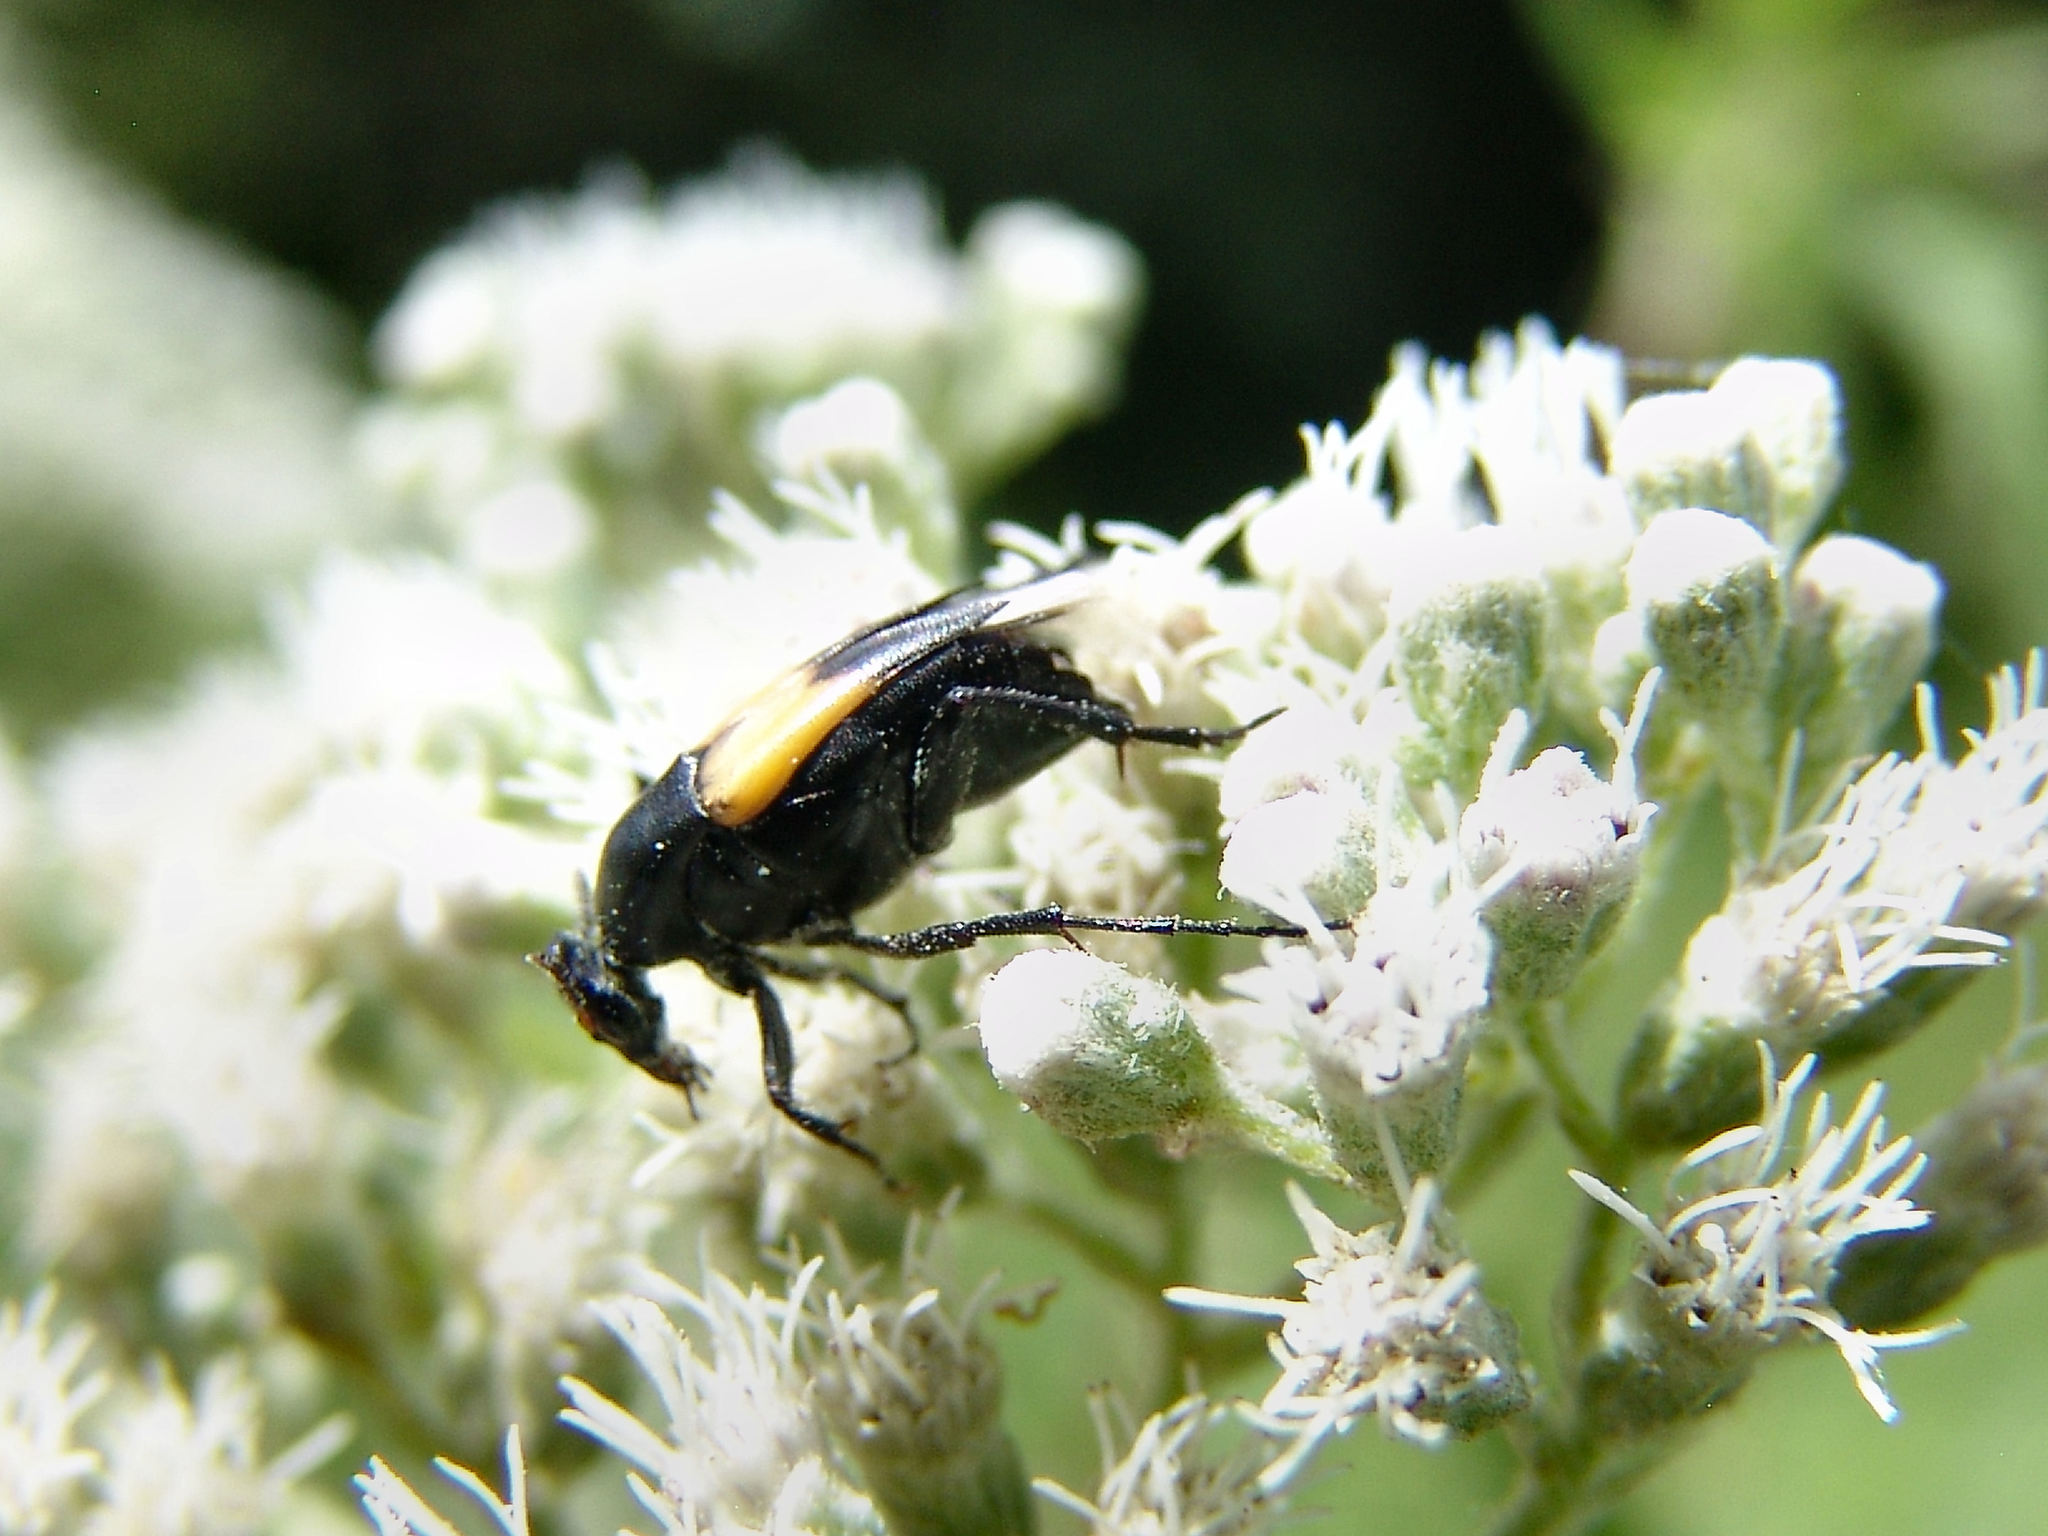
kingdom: Animalia
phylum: Arthropoda
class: Insecta
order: Coleoptera
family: Ripiphoridae
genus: Macrosiagon
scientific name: Macrosiagon dimidiata
